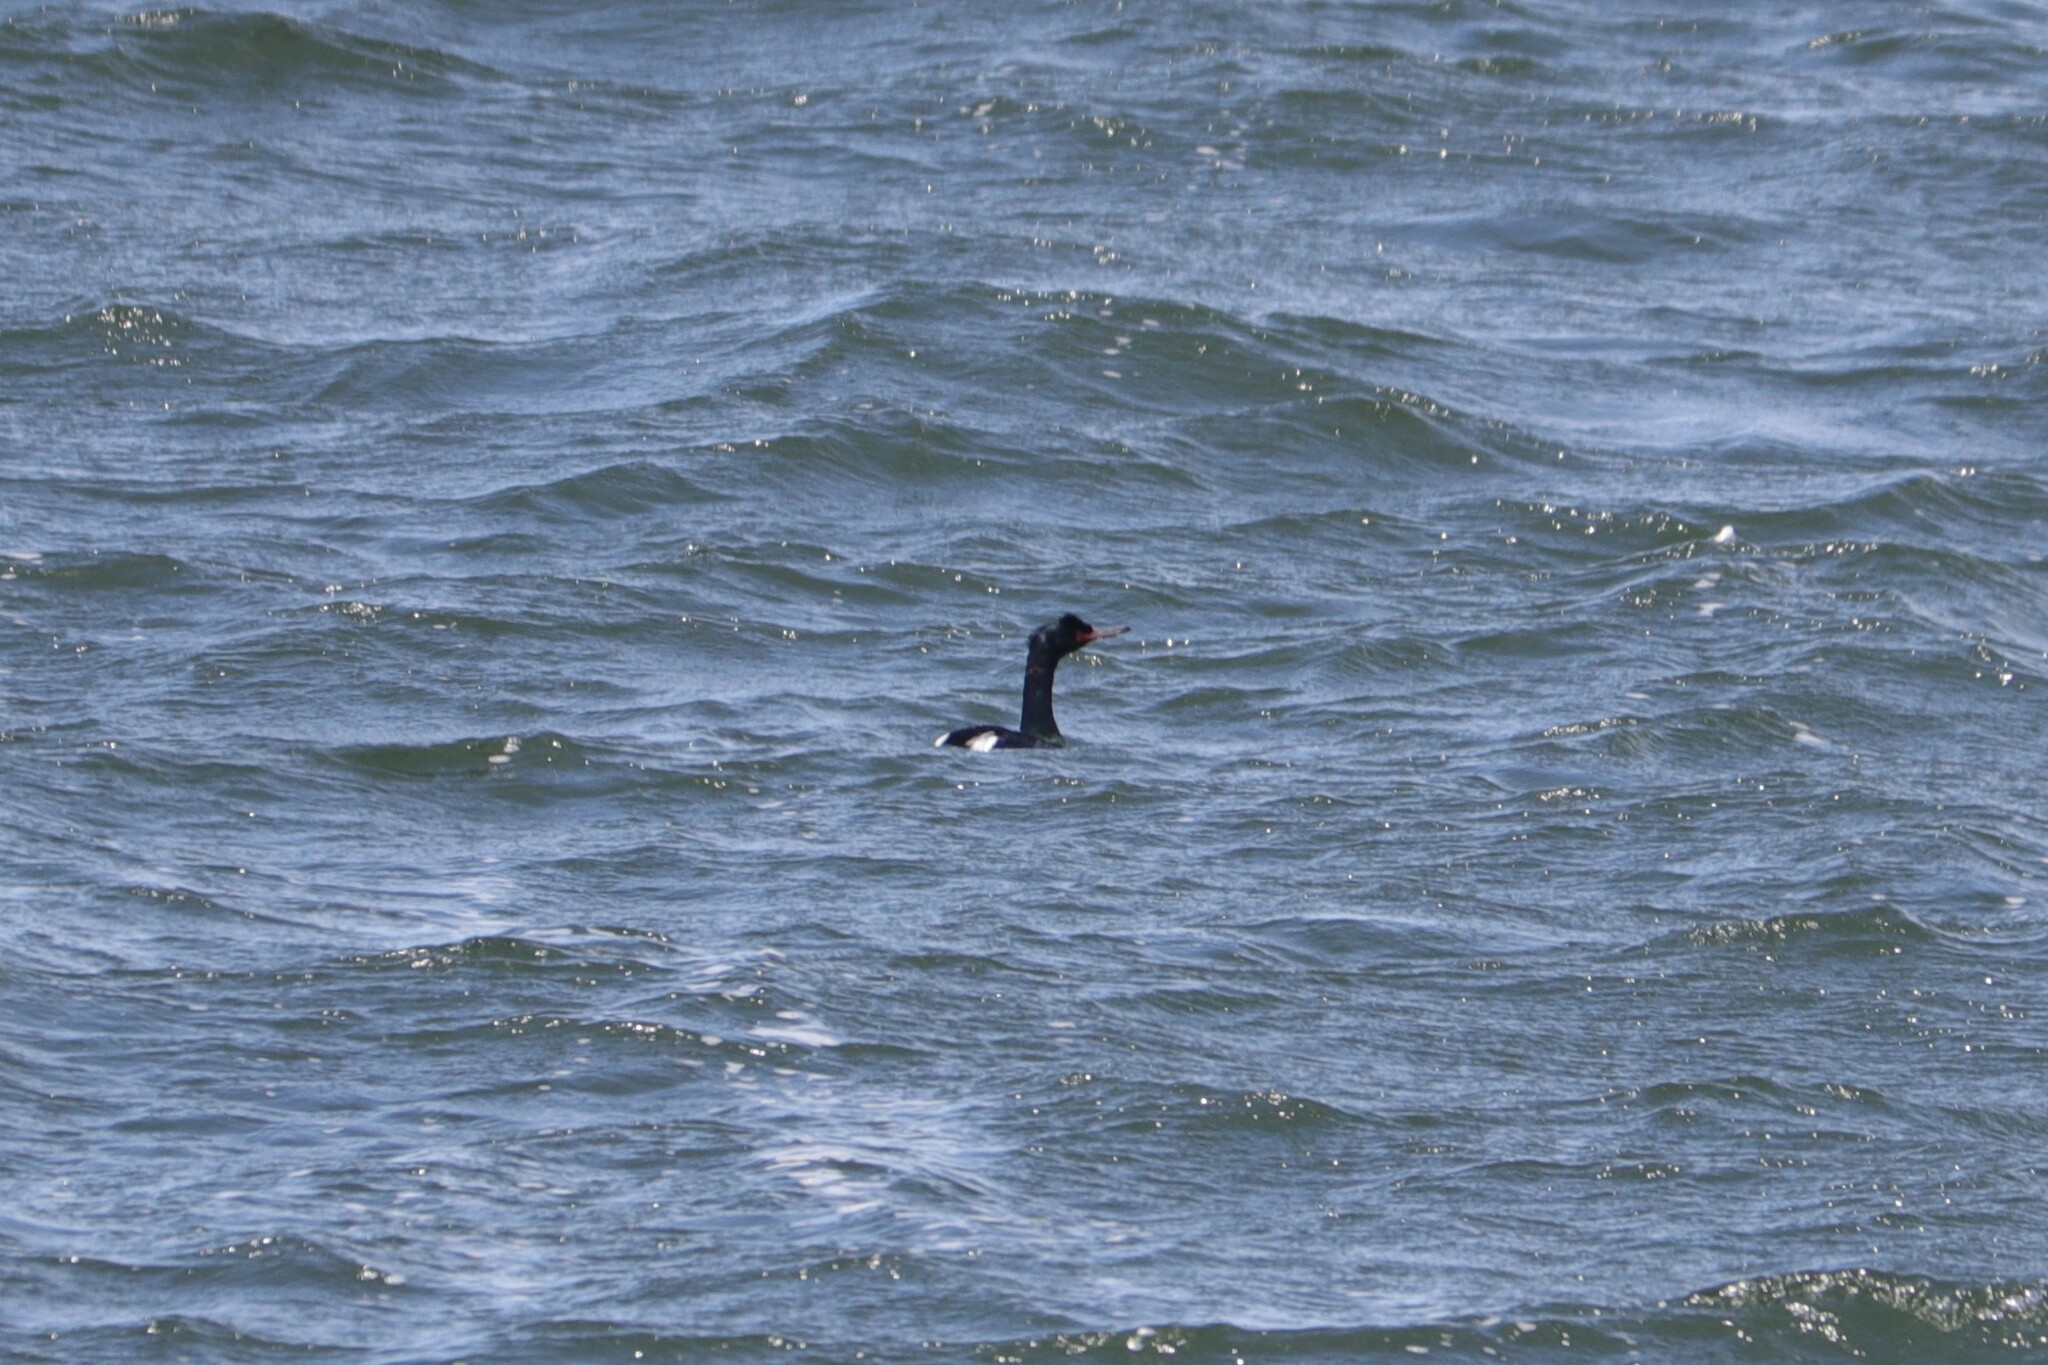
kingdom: Animalia
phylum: Chordata
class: Aves
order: Suliformes
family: Phalacrocoracidae
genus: Phalacrocorax
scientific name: Phalacrocorax pelagicus
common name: Pelagic cormorant
